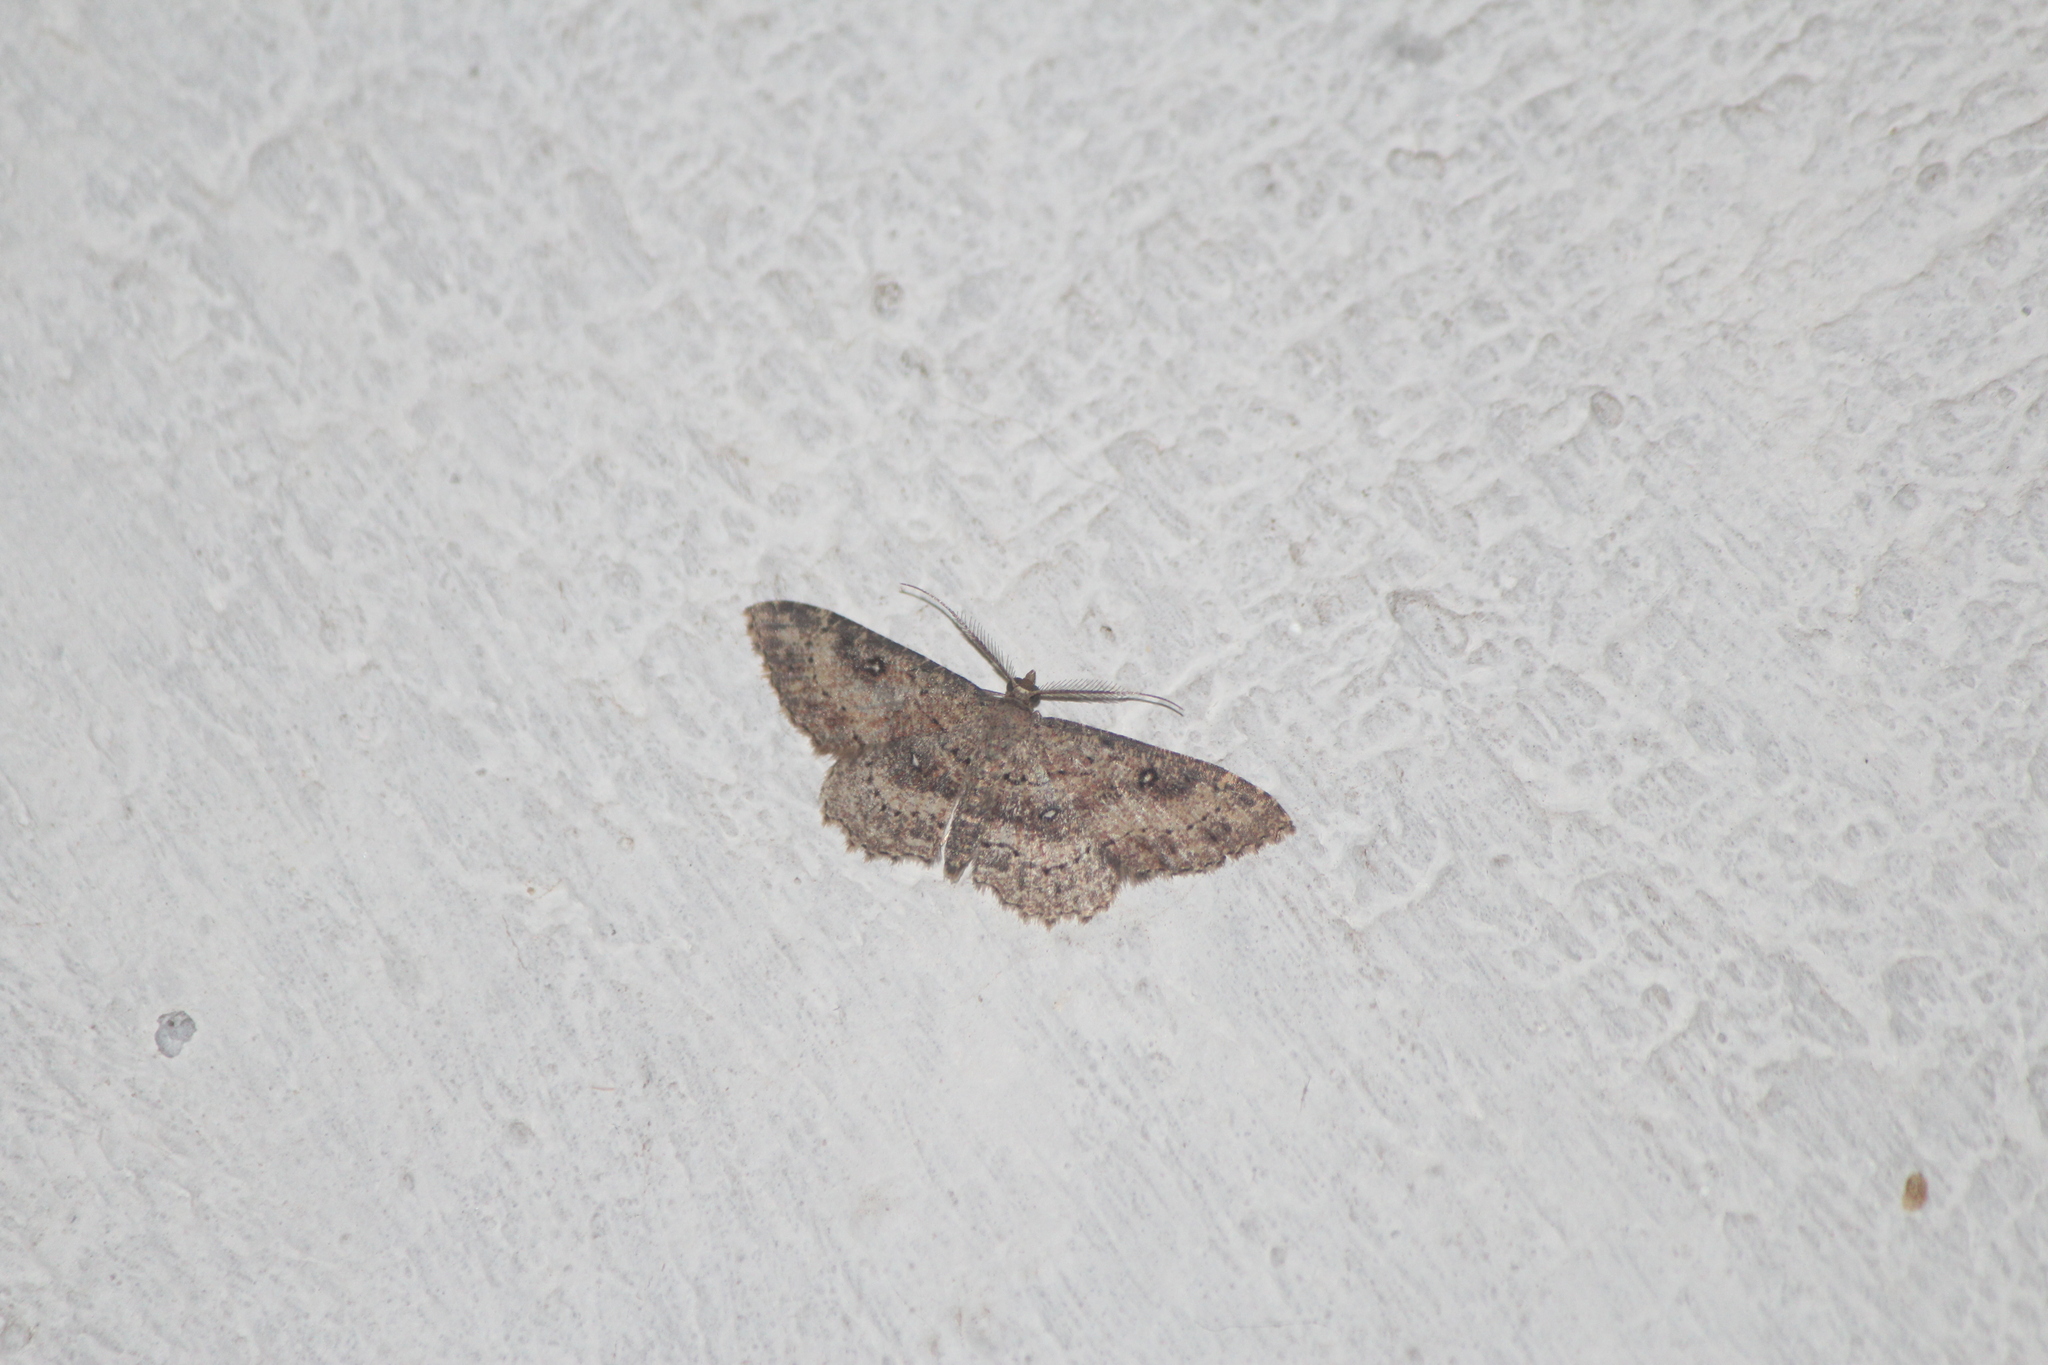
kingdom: Animalia
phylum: Arthropoda
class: Insecta
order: Lepidoptera
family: Geometridae
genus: Cyclophora
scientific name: Cyclophora nanaria
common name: Cankerworm
